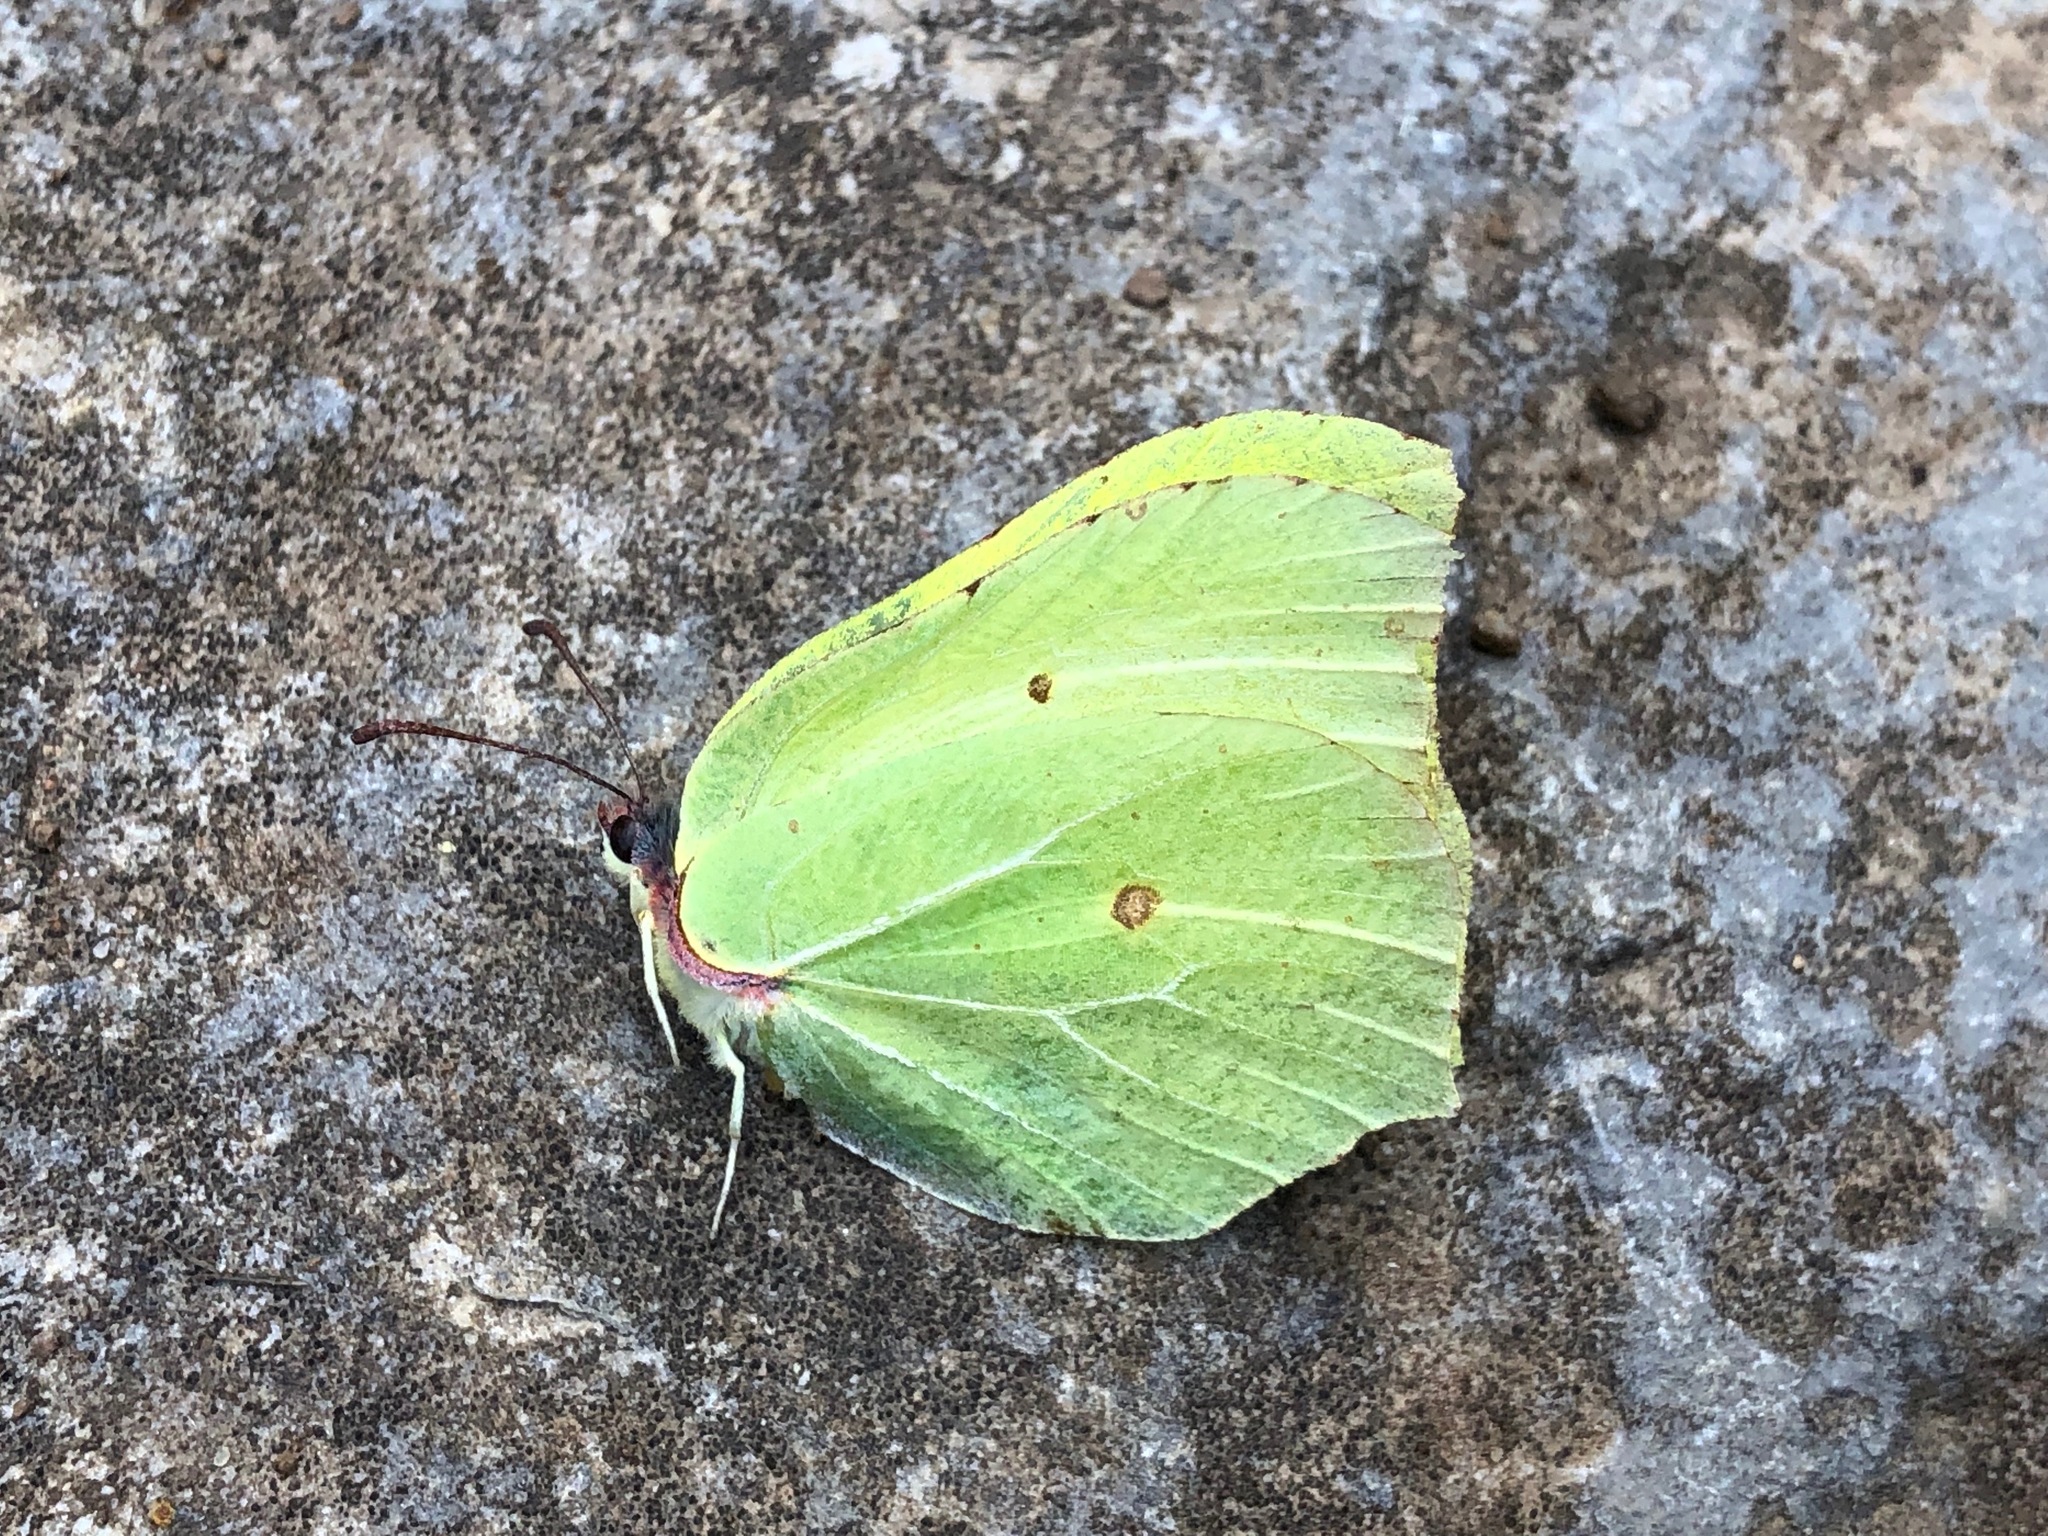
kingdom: Animalia
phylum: Arthropoda
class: Insecta
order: Lepidoptera
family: Pieridae
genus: Gonepteryx
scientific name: Gonepteryx rhamni
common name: Brimstone
